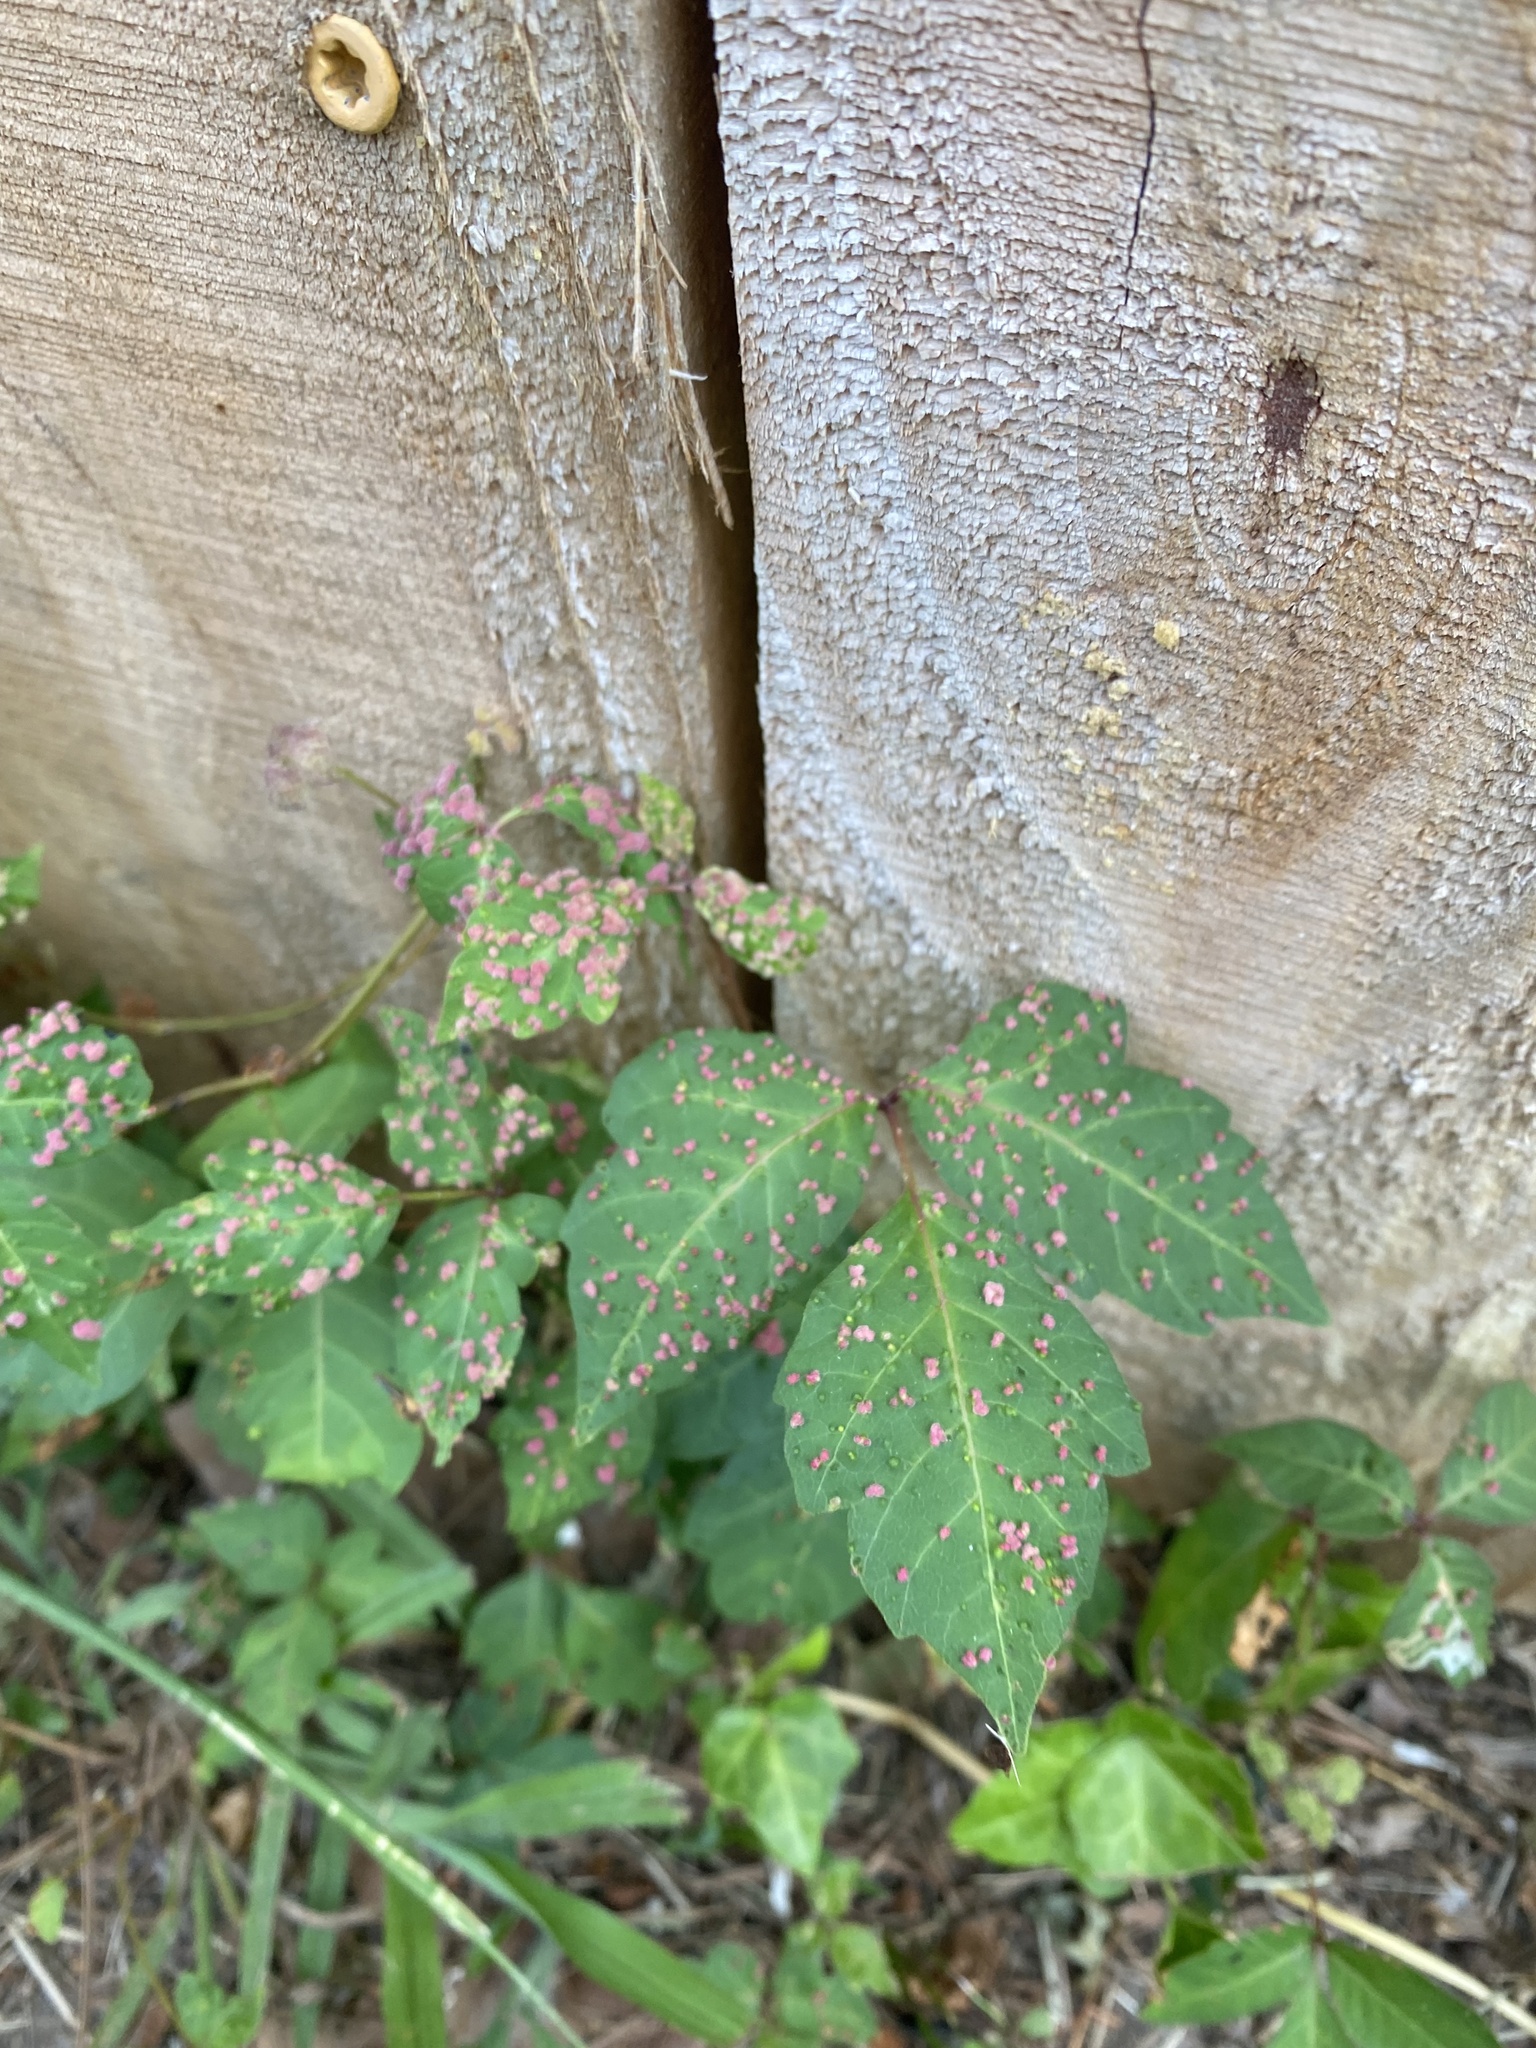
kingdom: Animalia
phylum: Arthropoda
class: Arachnida
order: Trombidiformes
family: Eriophyidae
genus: Aculops
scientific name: Aculops
